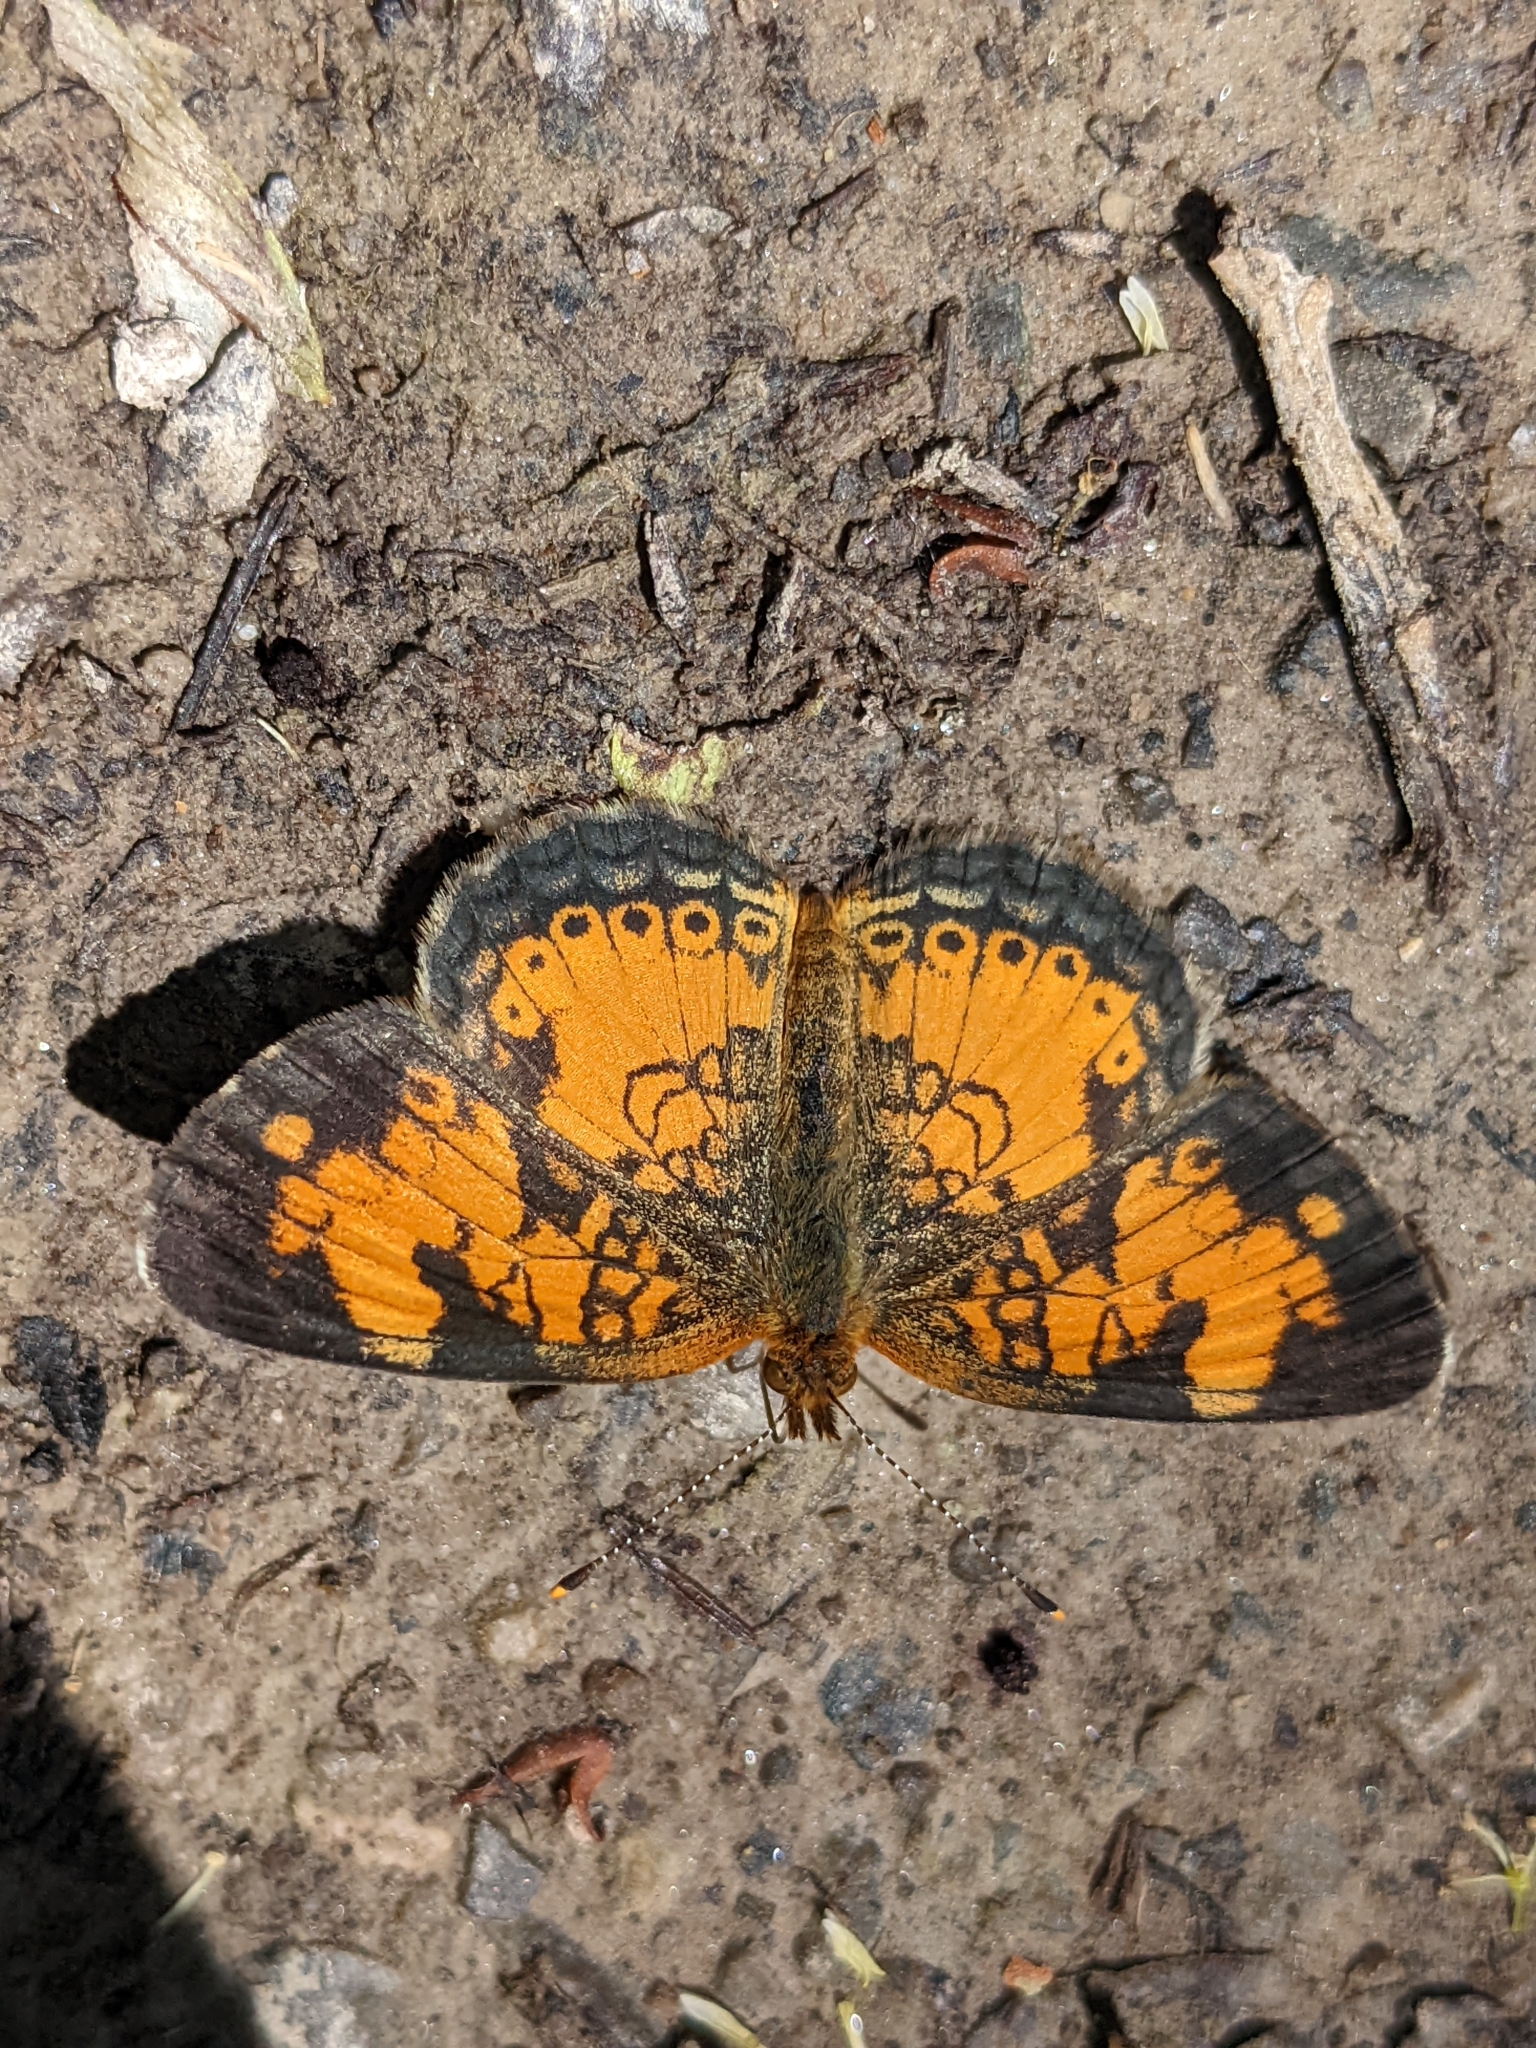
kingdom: Animalia
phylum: Arthropoda
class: Insecta
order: Lepidoptera
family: Nymphalidae
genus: Phyciodes
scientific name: Phyciodes tharos
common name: Pearl crescent
